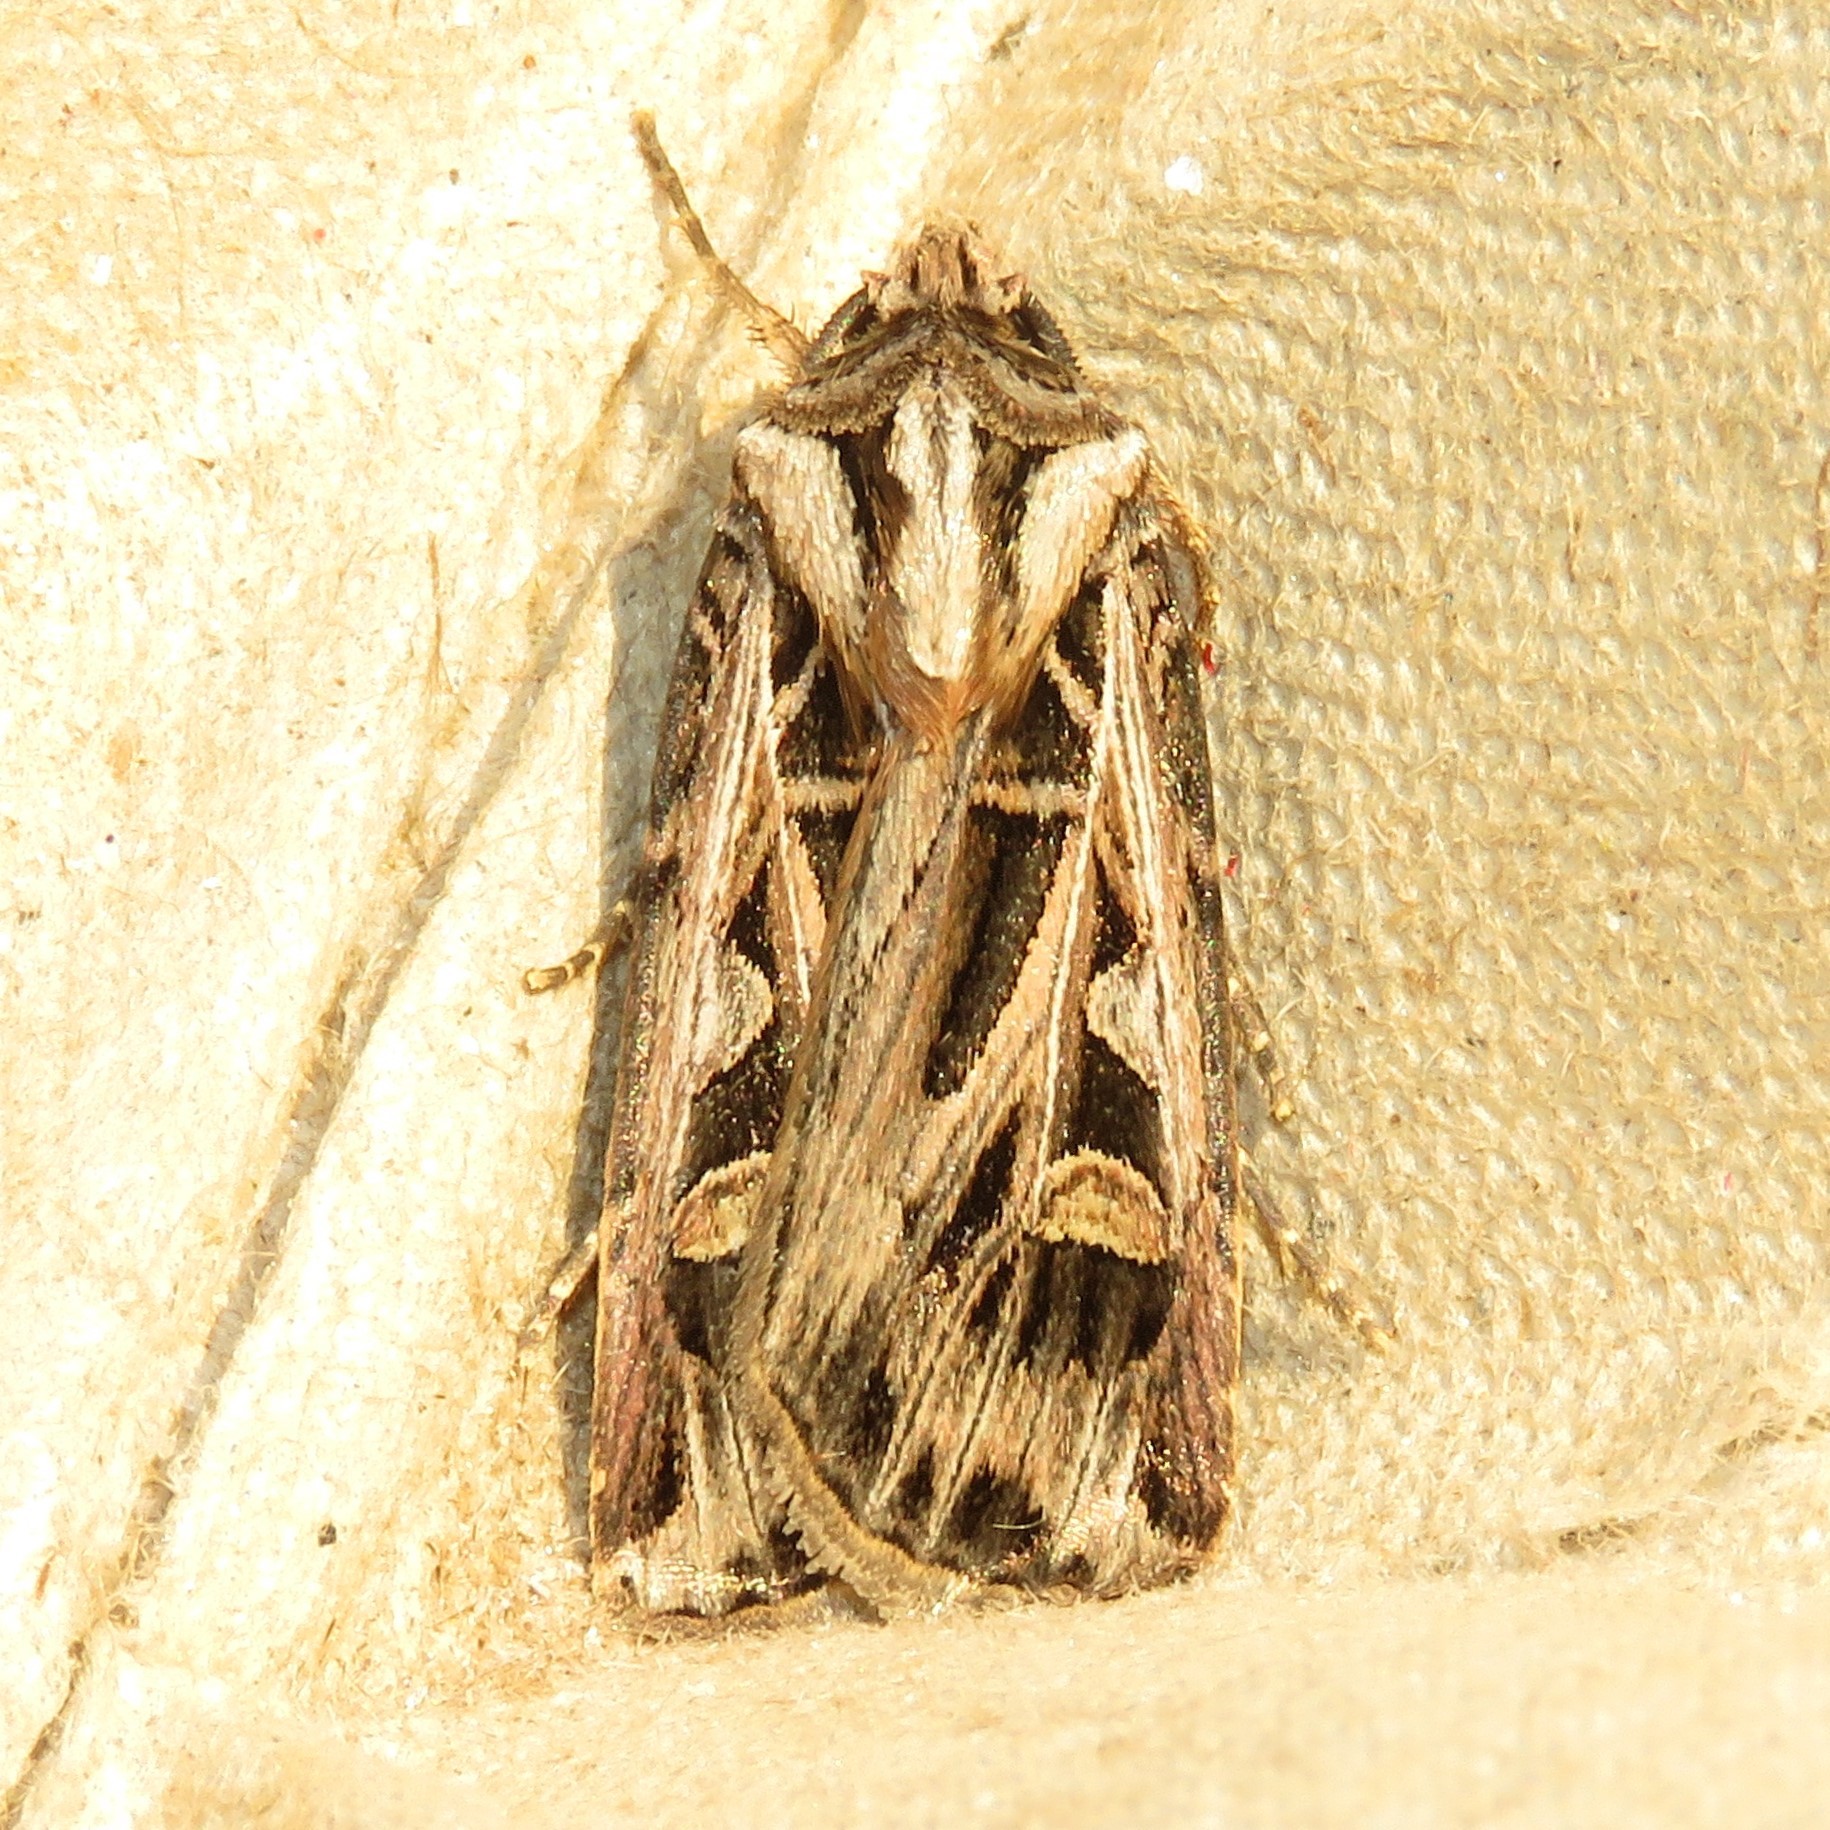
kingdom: Animalia
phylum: Arthropoda
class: Insecta
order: Lepidoptera
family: Noctuidae
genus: Feltia
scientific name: Feltia jaculifera
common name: Dingy cutworm moth
